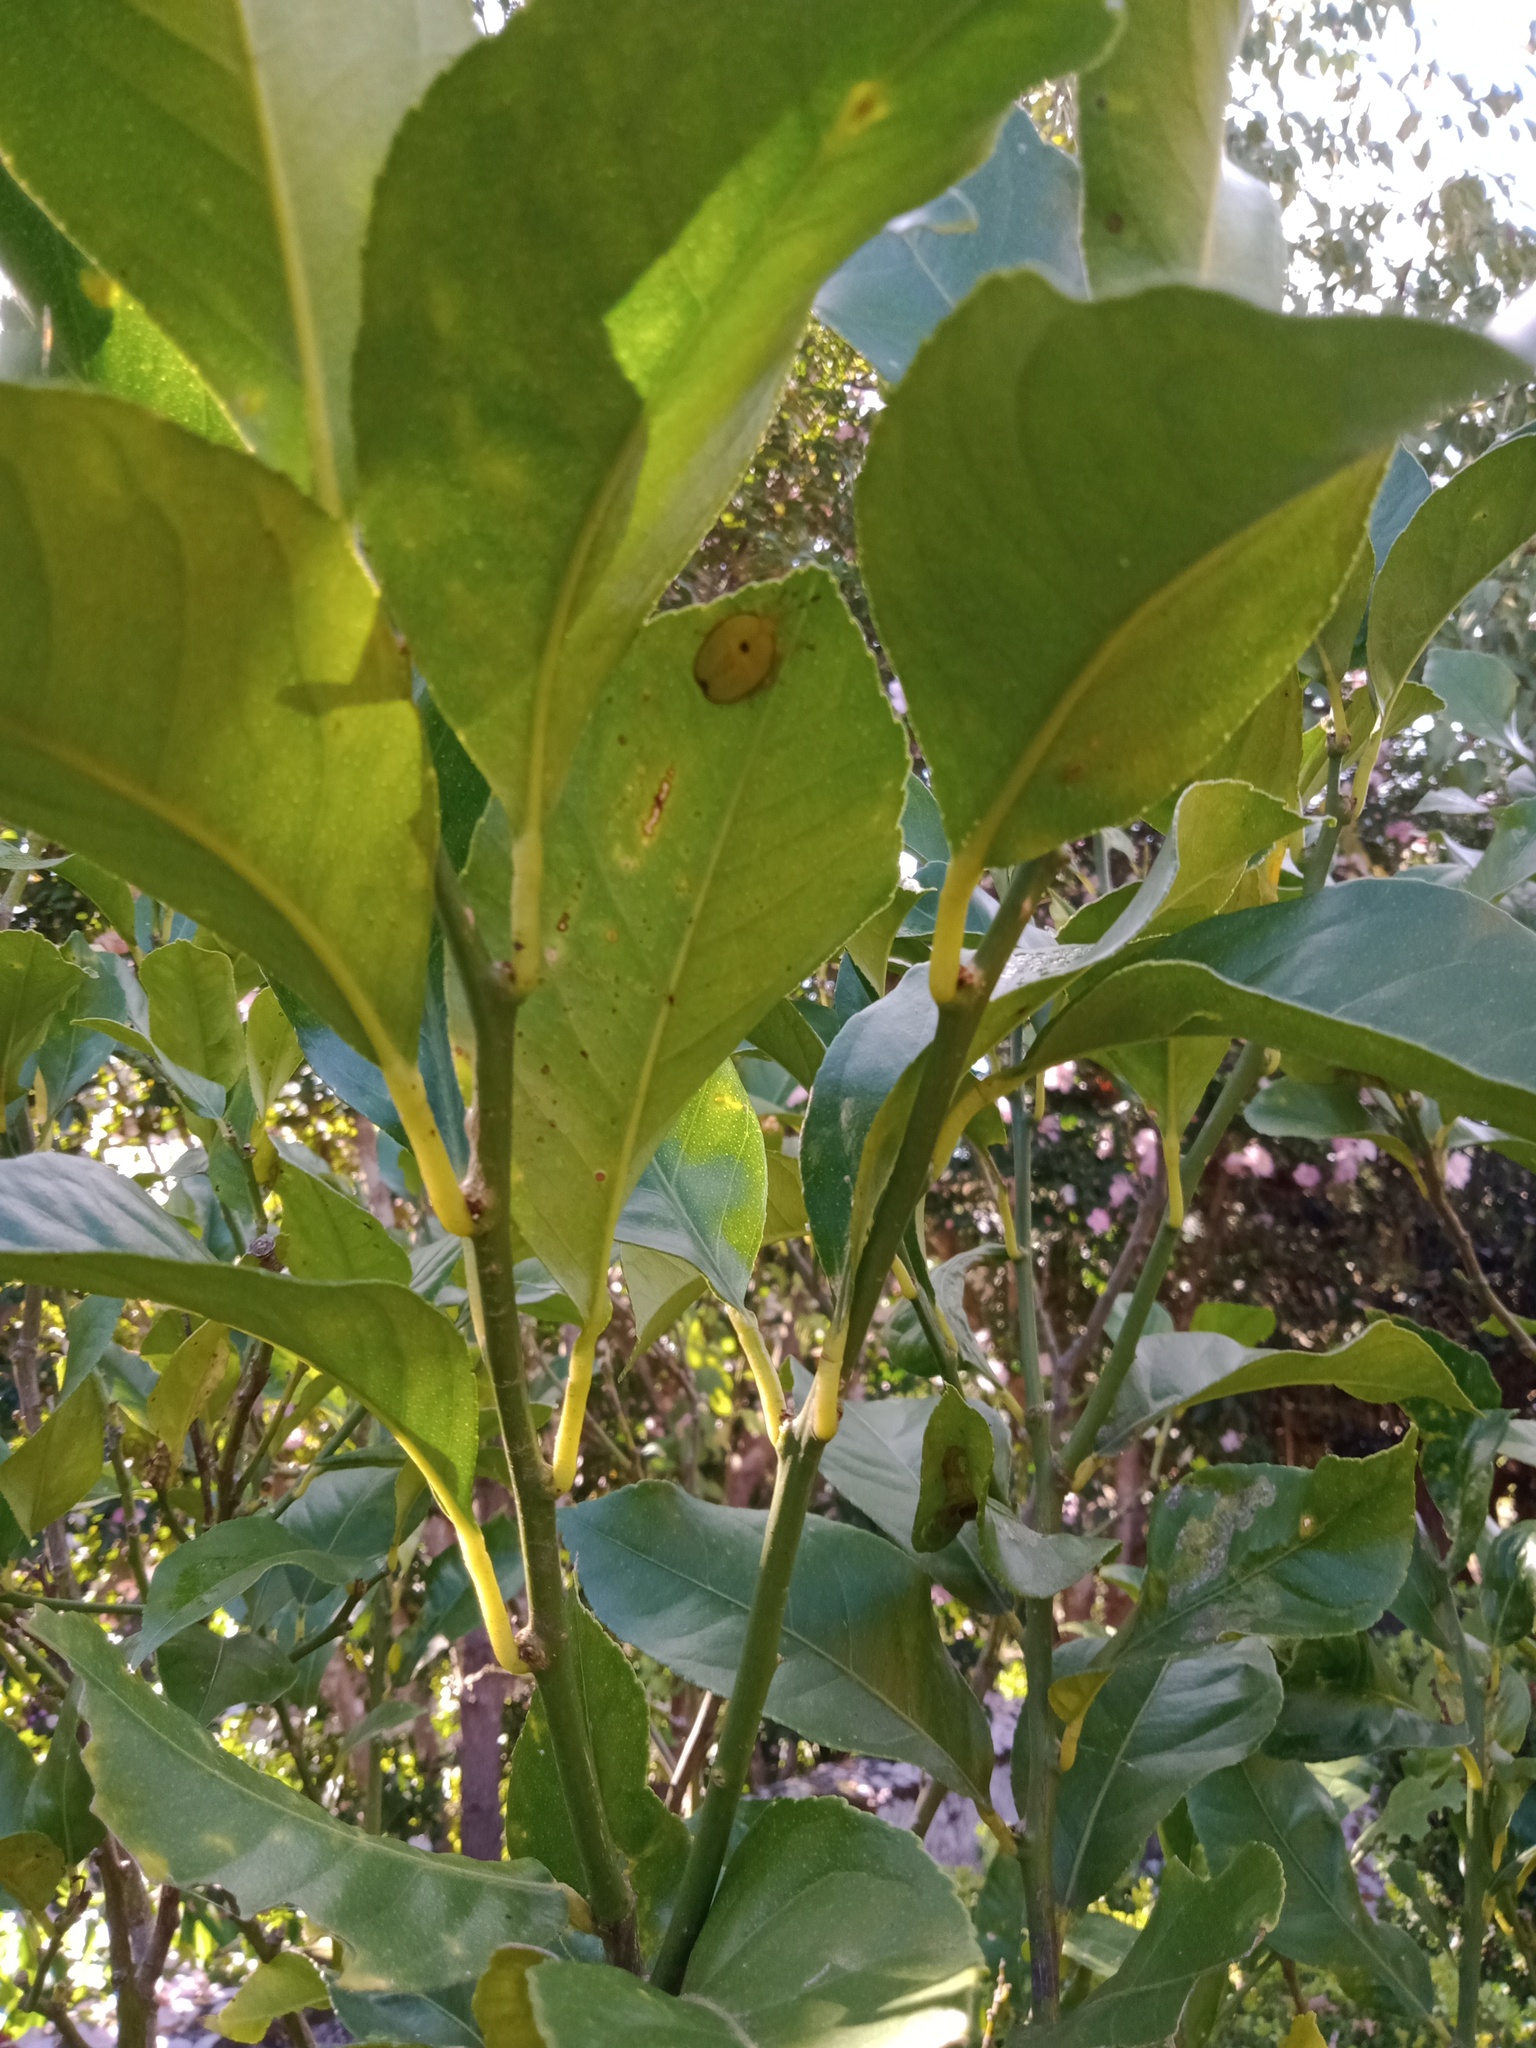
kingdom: Animalia
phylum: Arthropoda
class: Insecta
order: Hemiptera
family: Tessaratomidae
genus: Musgraveia
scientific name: Musgraveia sulciventris
